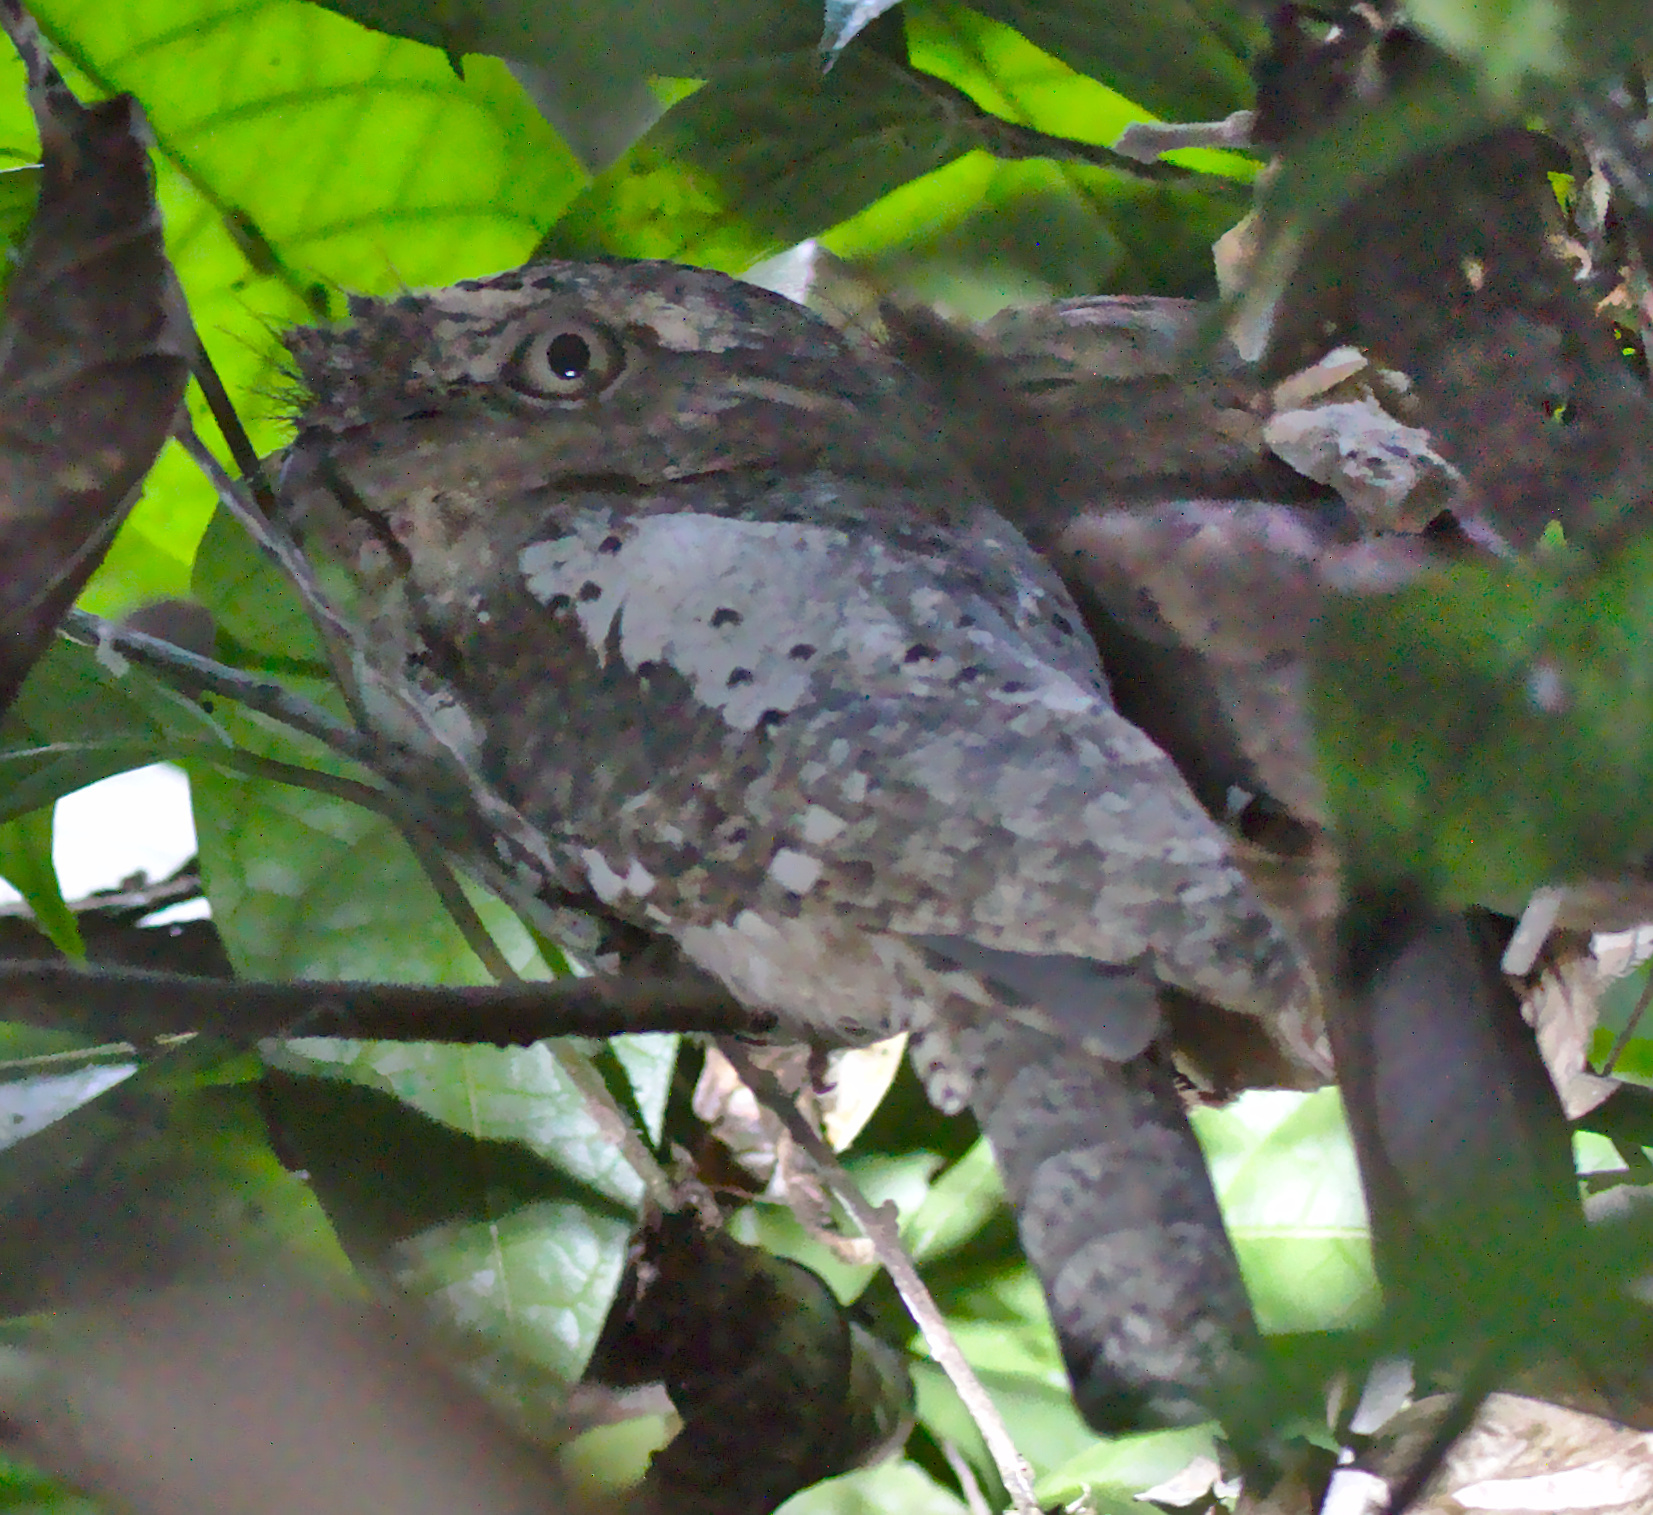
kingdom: Animalia
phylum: Chordata
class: Aves
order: Caprimulgiformes
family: Podargidae
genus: Batrachostomus
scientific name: Batrachostomus moniliger
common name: Sri lanka frogmouth
